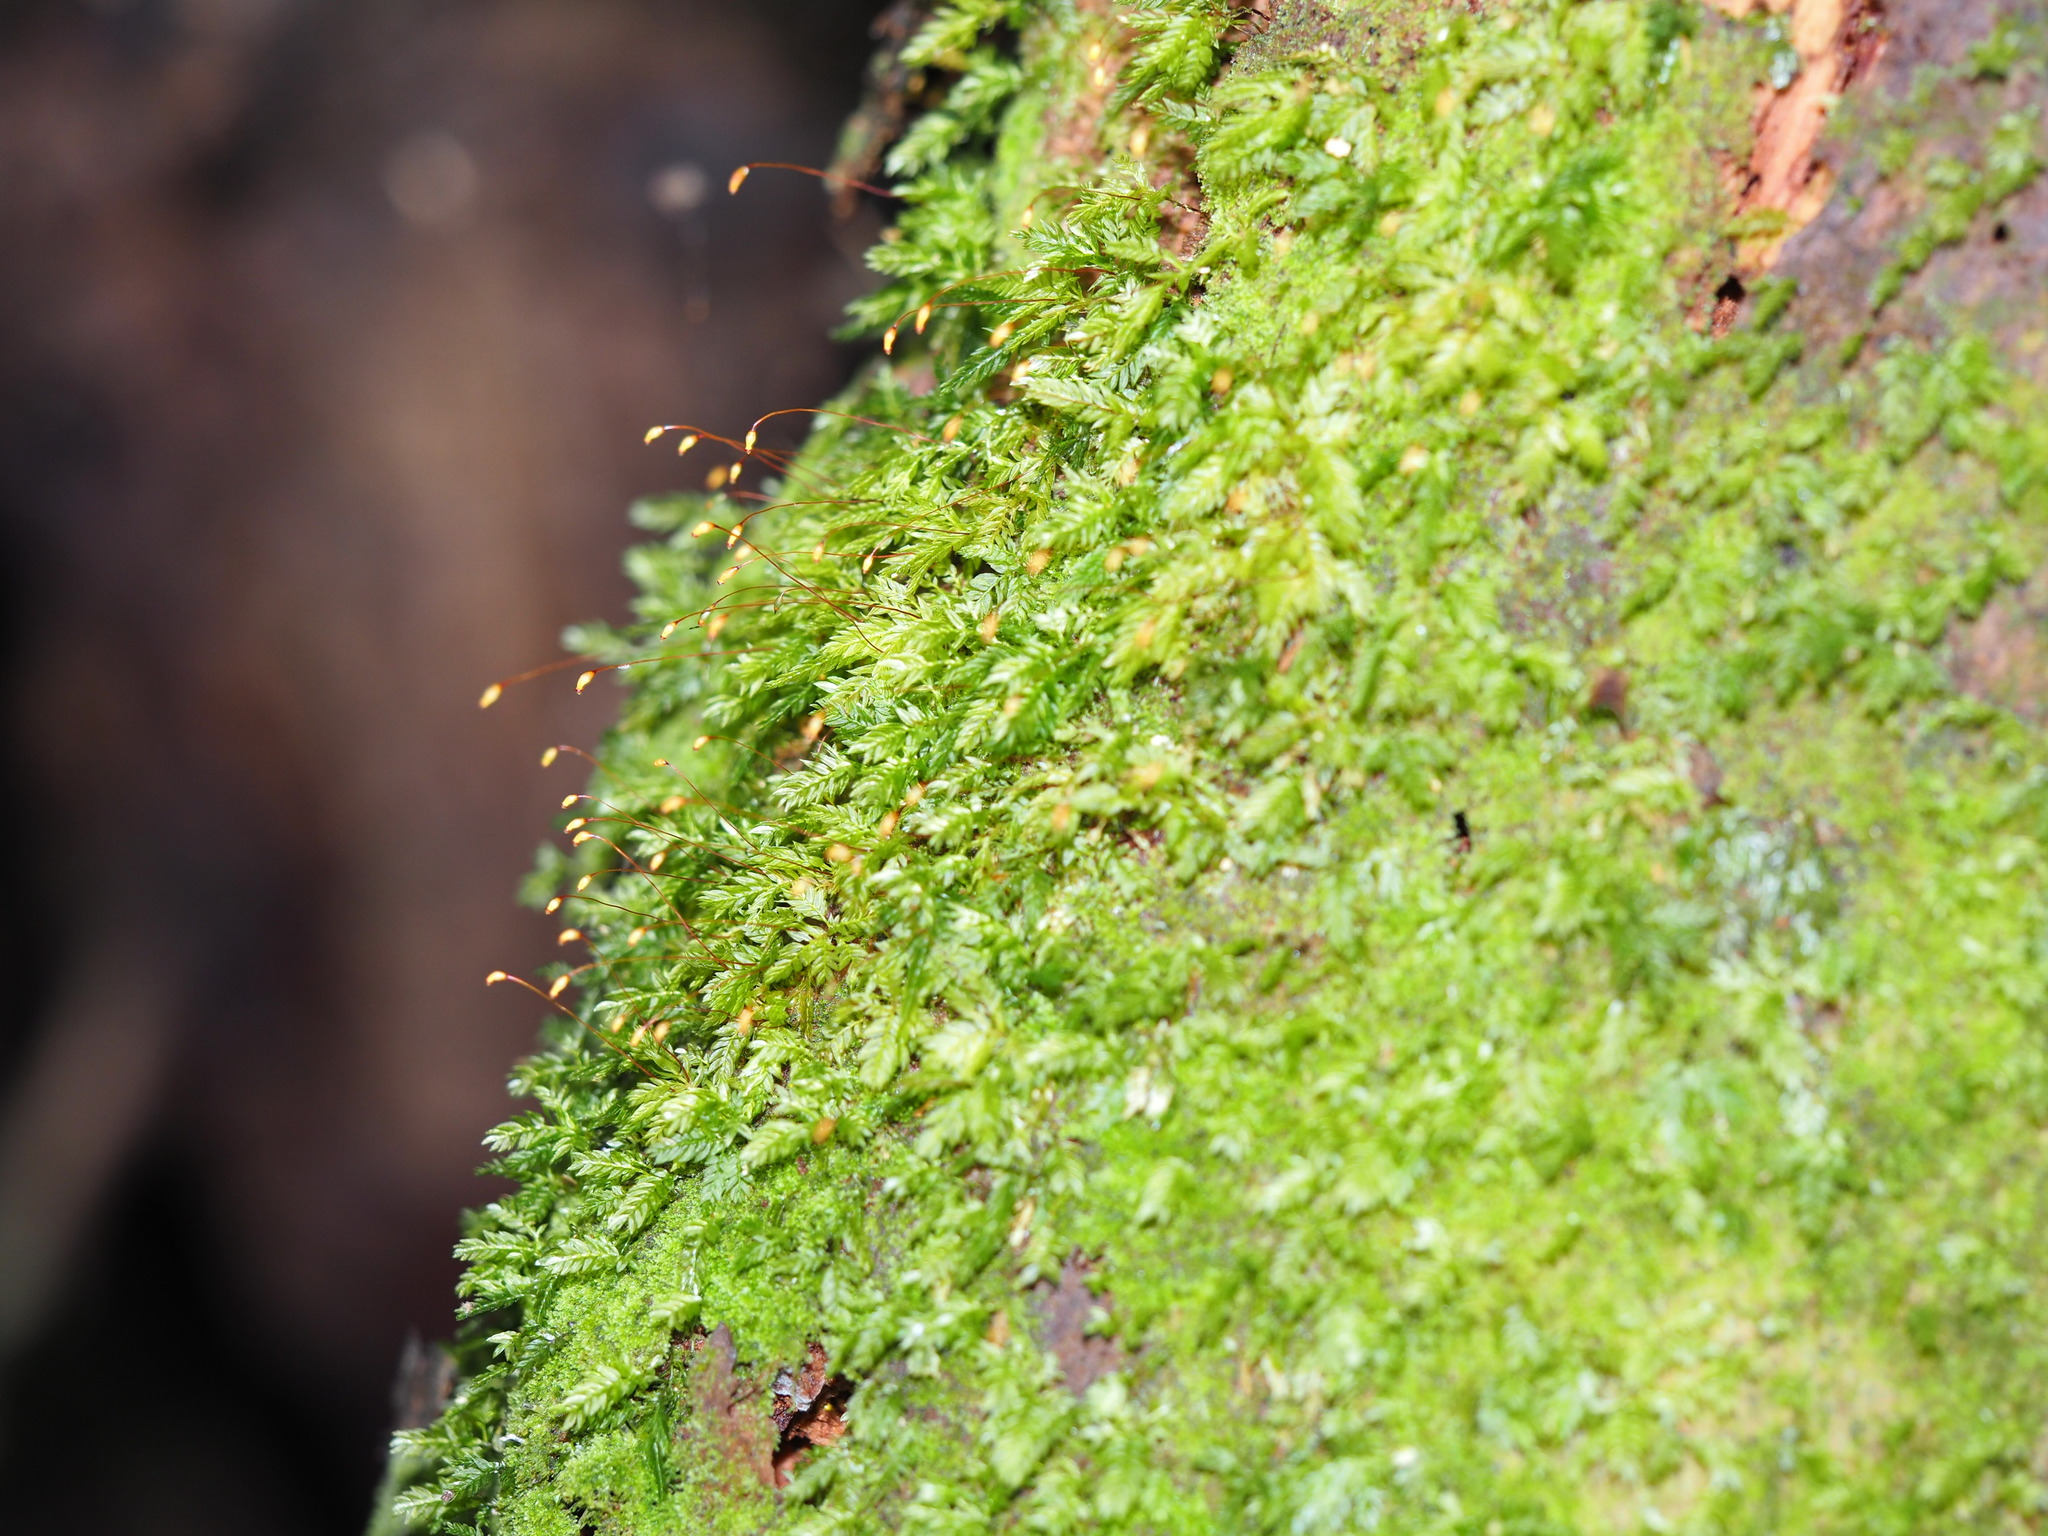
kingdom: Plantae
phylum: Bryophyta
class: Bryopsida
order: Aulacomniales
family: Aulacomniaceae
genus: Hymenodontopsis
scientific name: Hymenodontopsis bifaria
